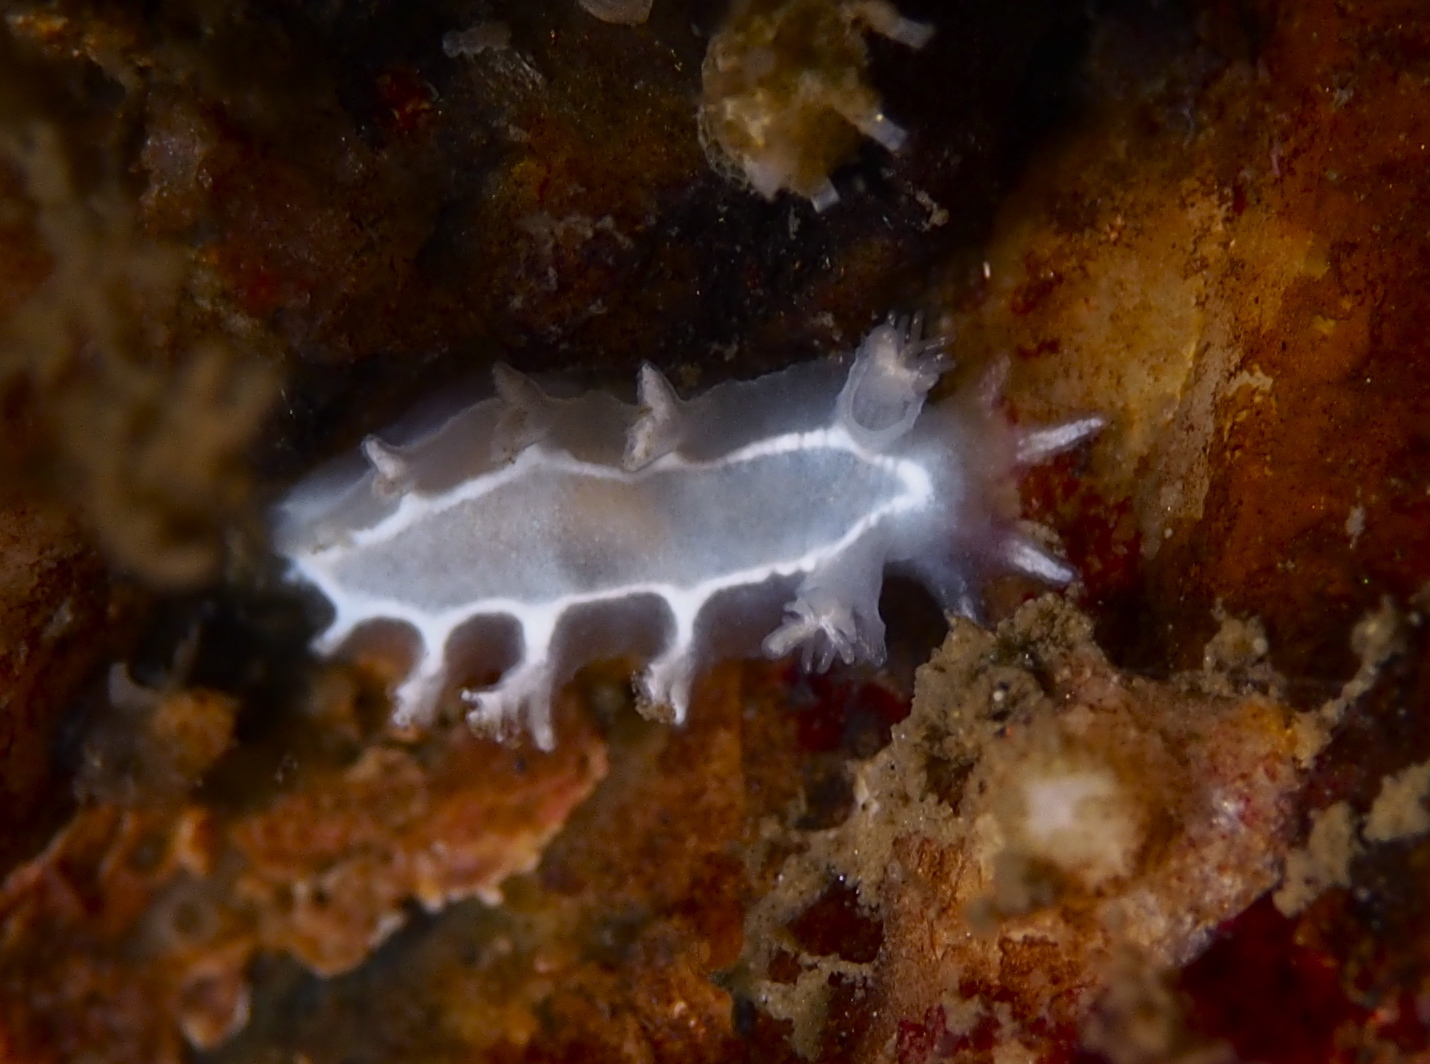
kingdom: Animalia
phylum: Mollusca
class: Gastropoda
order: Nudibranchia
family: Tritoniidae
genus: Duvaucelia
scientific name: Duvaucelia lineata
